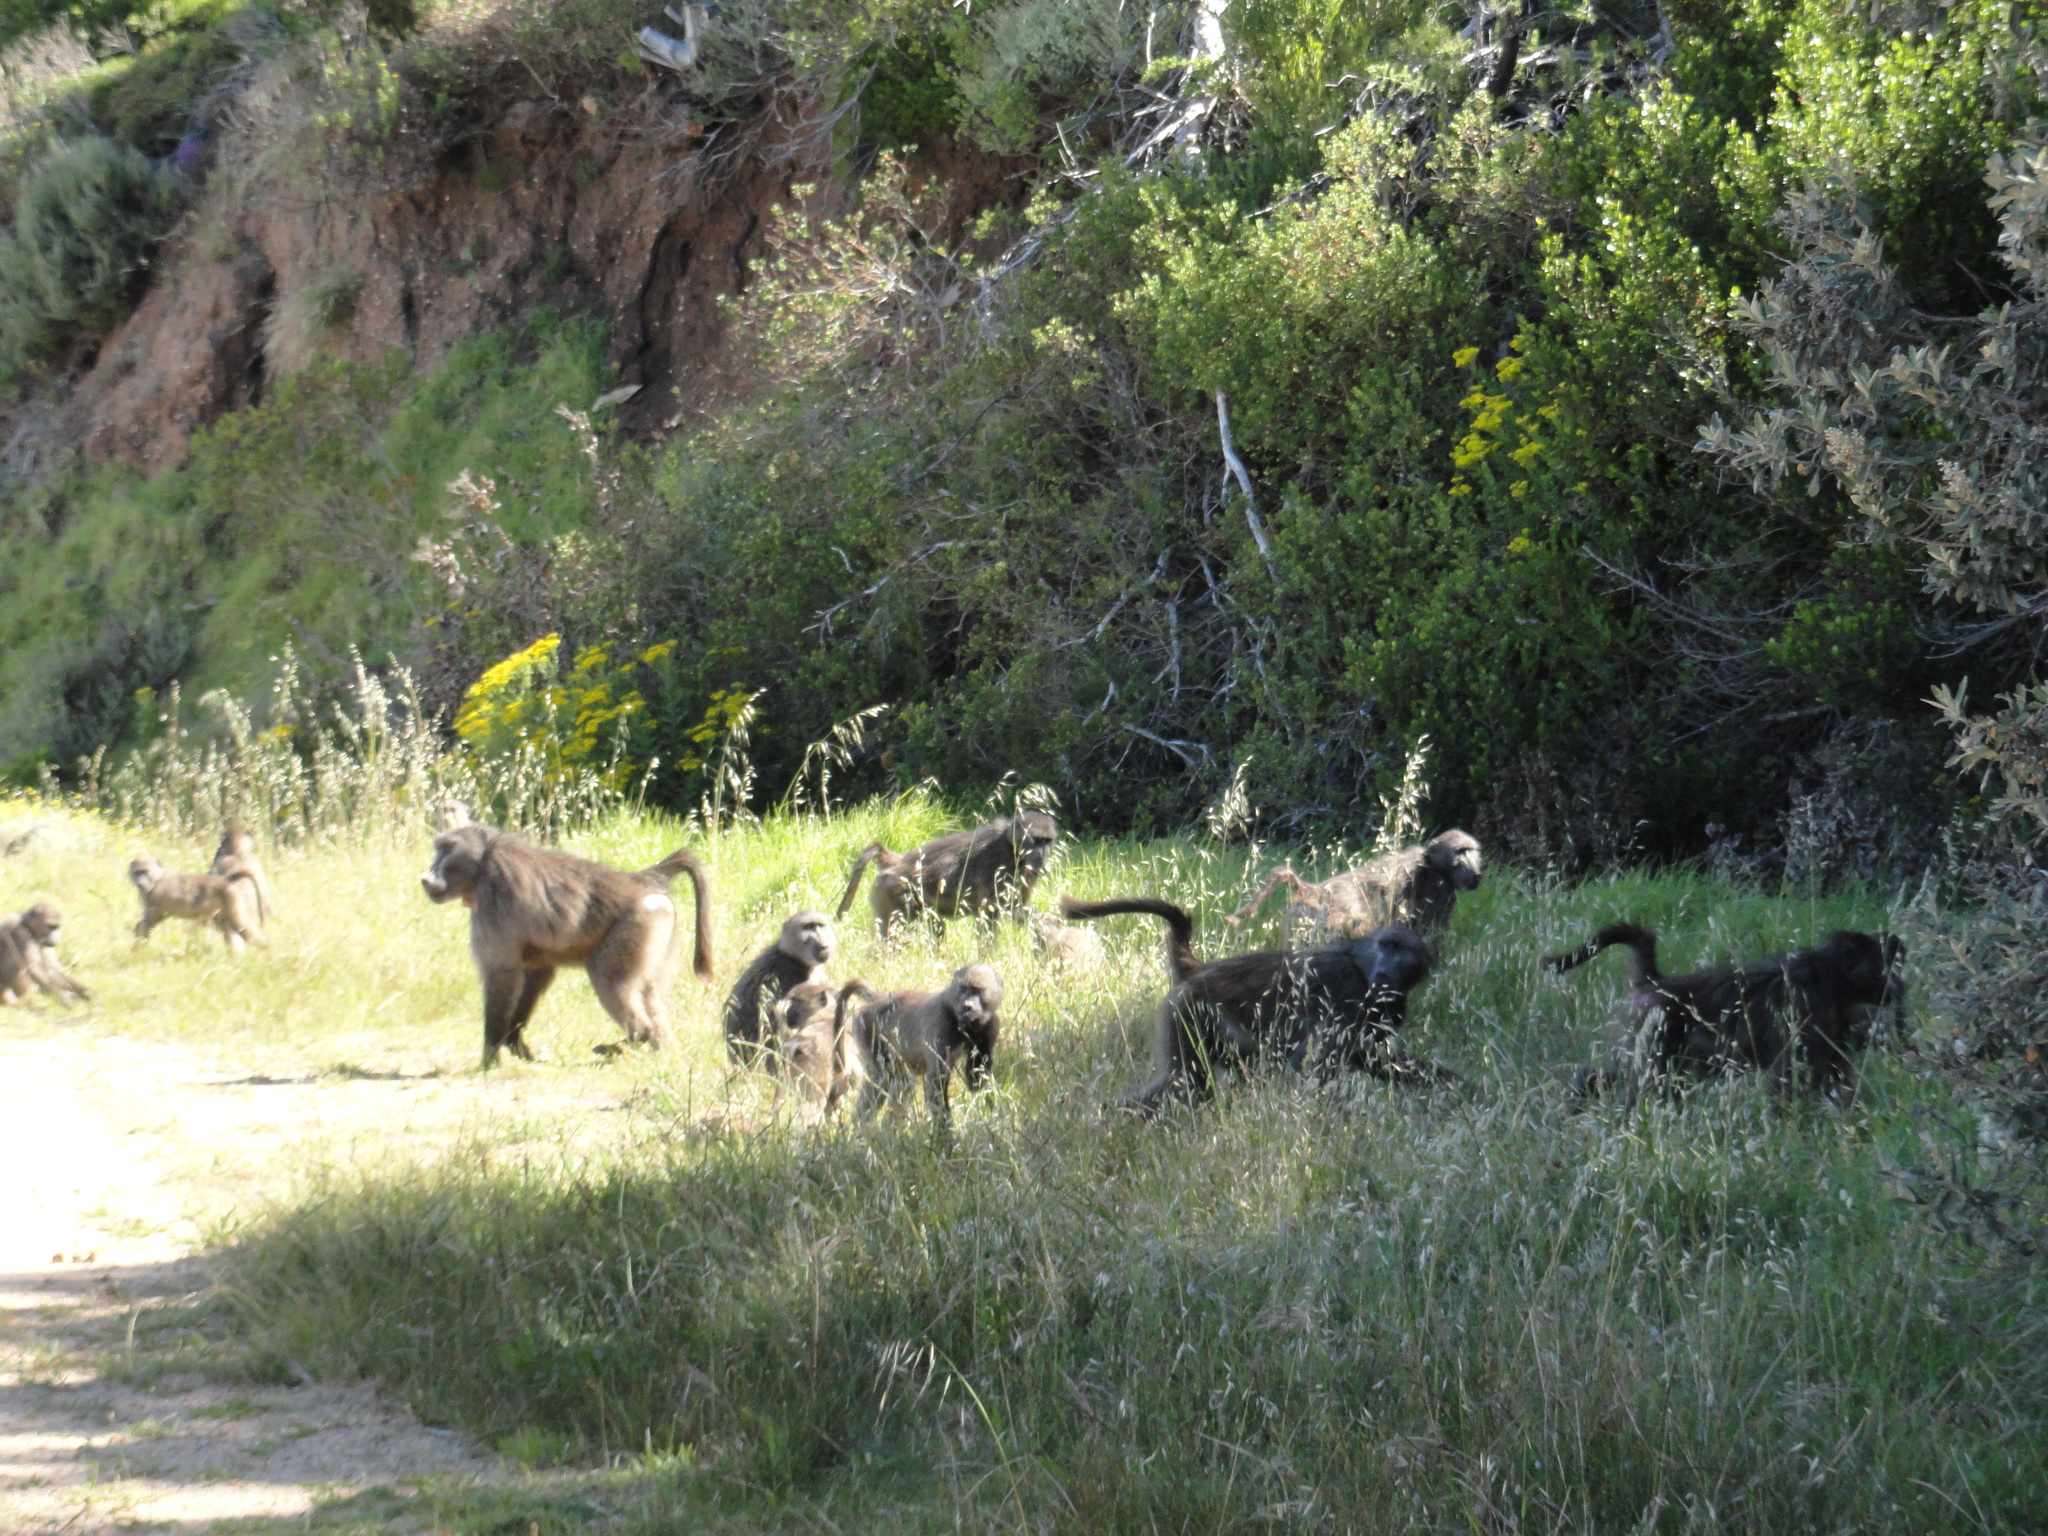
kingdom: Animalia
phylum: Chordata
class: Mammalia
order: Primates
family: Cercopithecidae
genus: Papio
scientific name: Papio ursinus
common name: Chacma baboon
